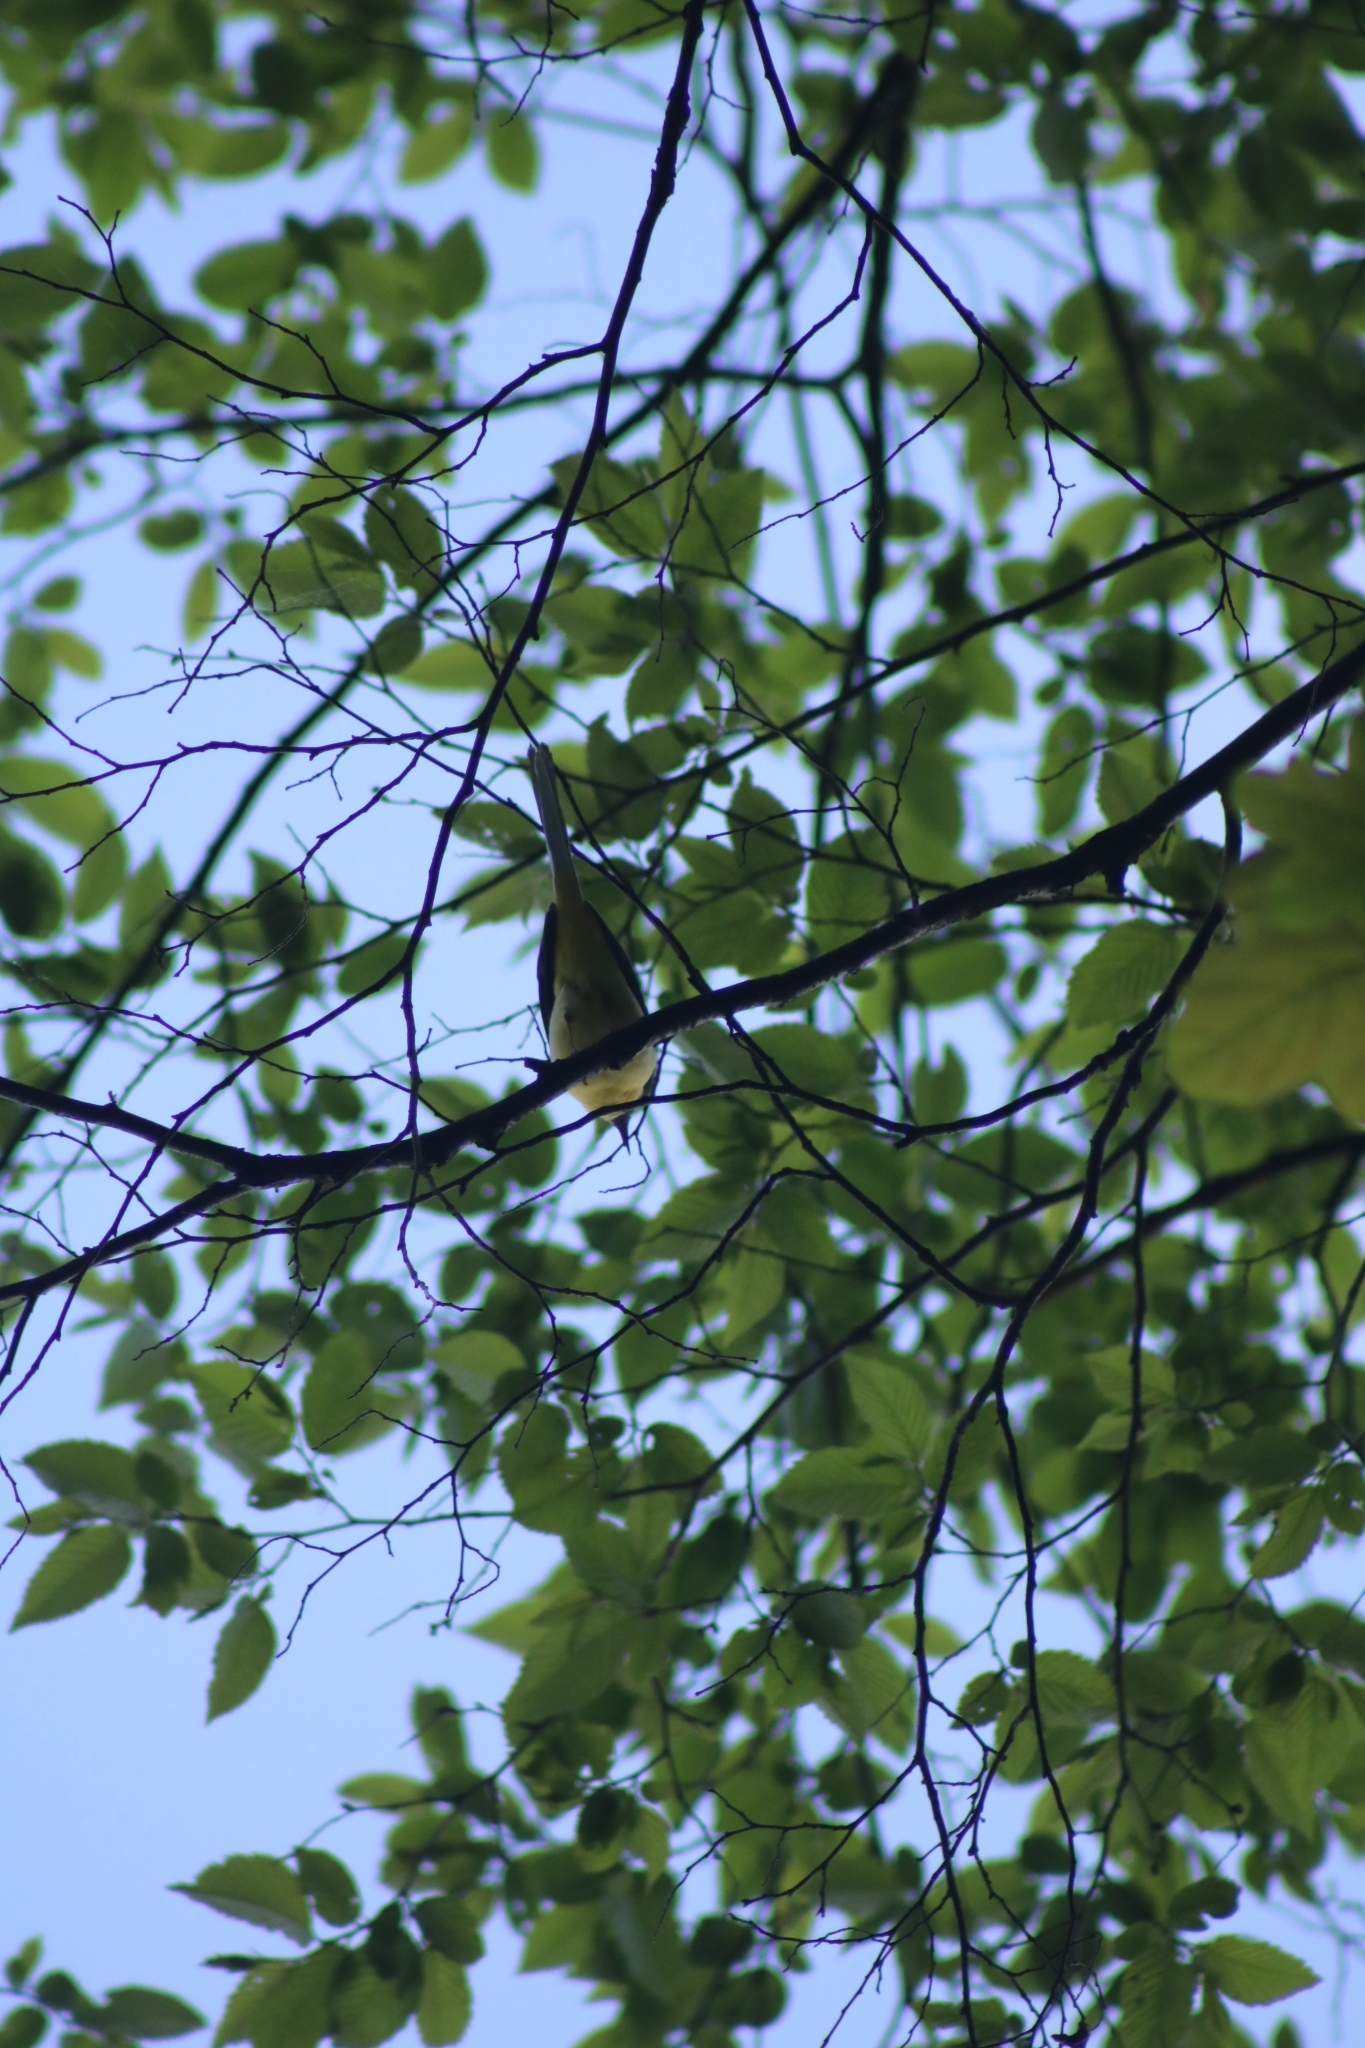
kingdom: Animalia
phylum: Chordata
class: Aves
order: Passeriformes
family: Motacillidae
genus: Motacilla
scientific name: Motacilla cinerea
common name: Grey wagtail
